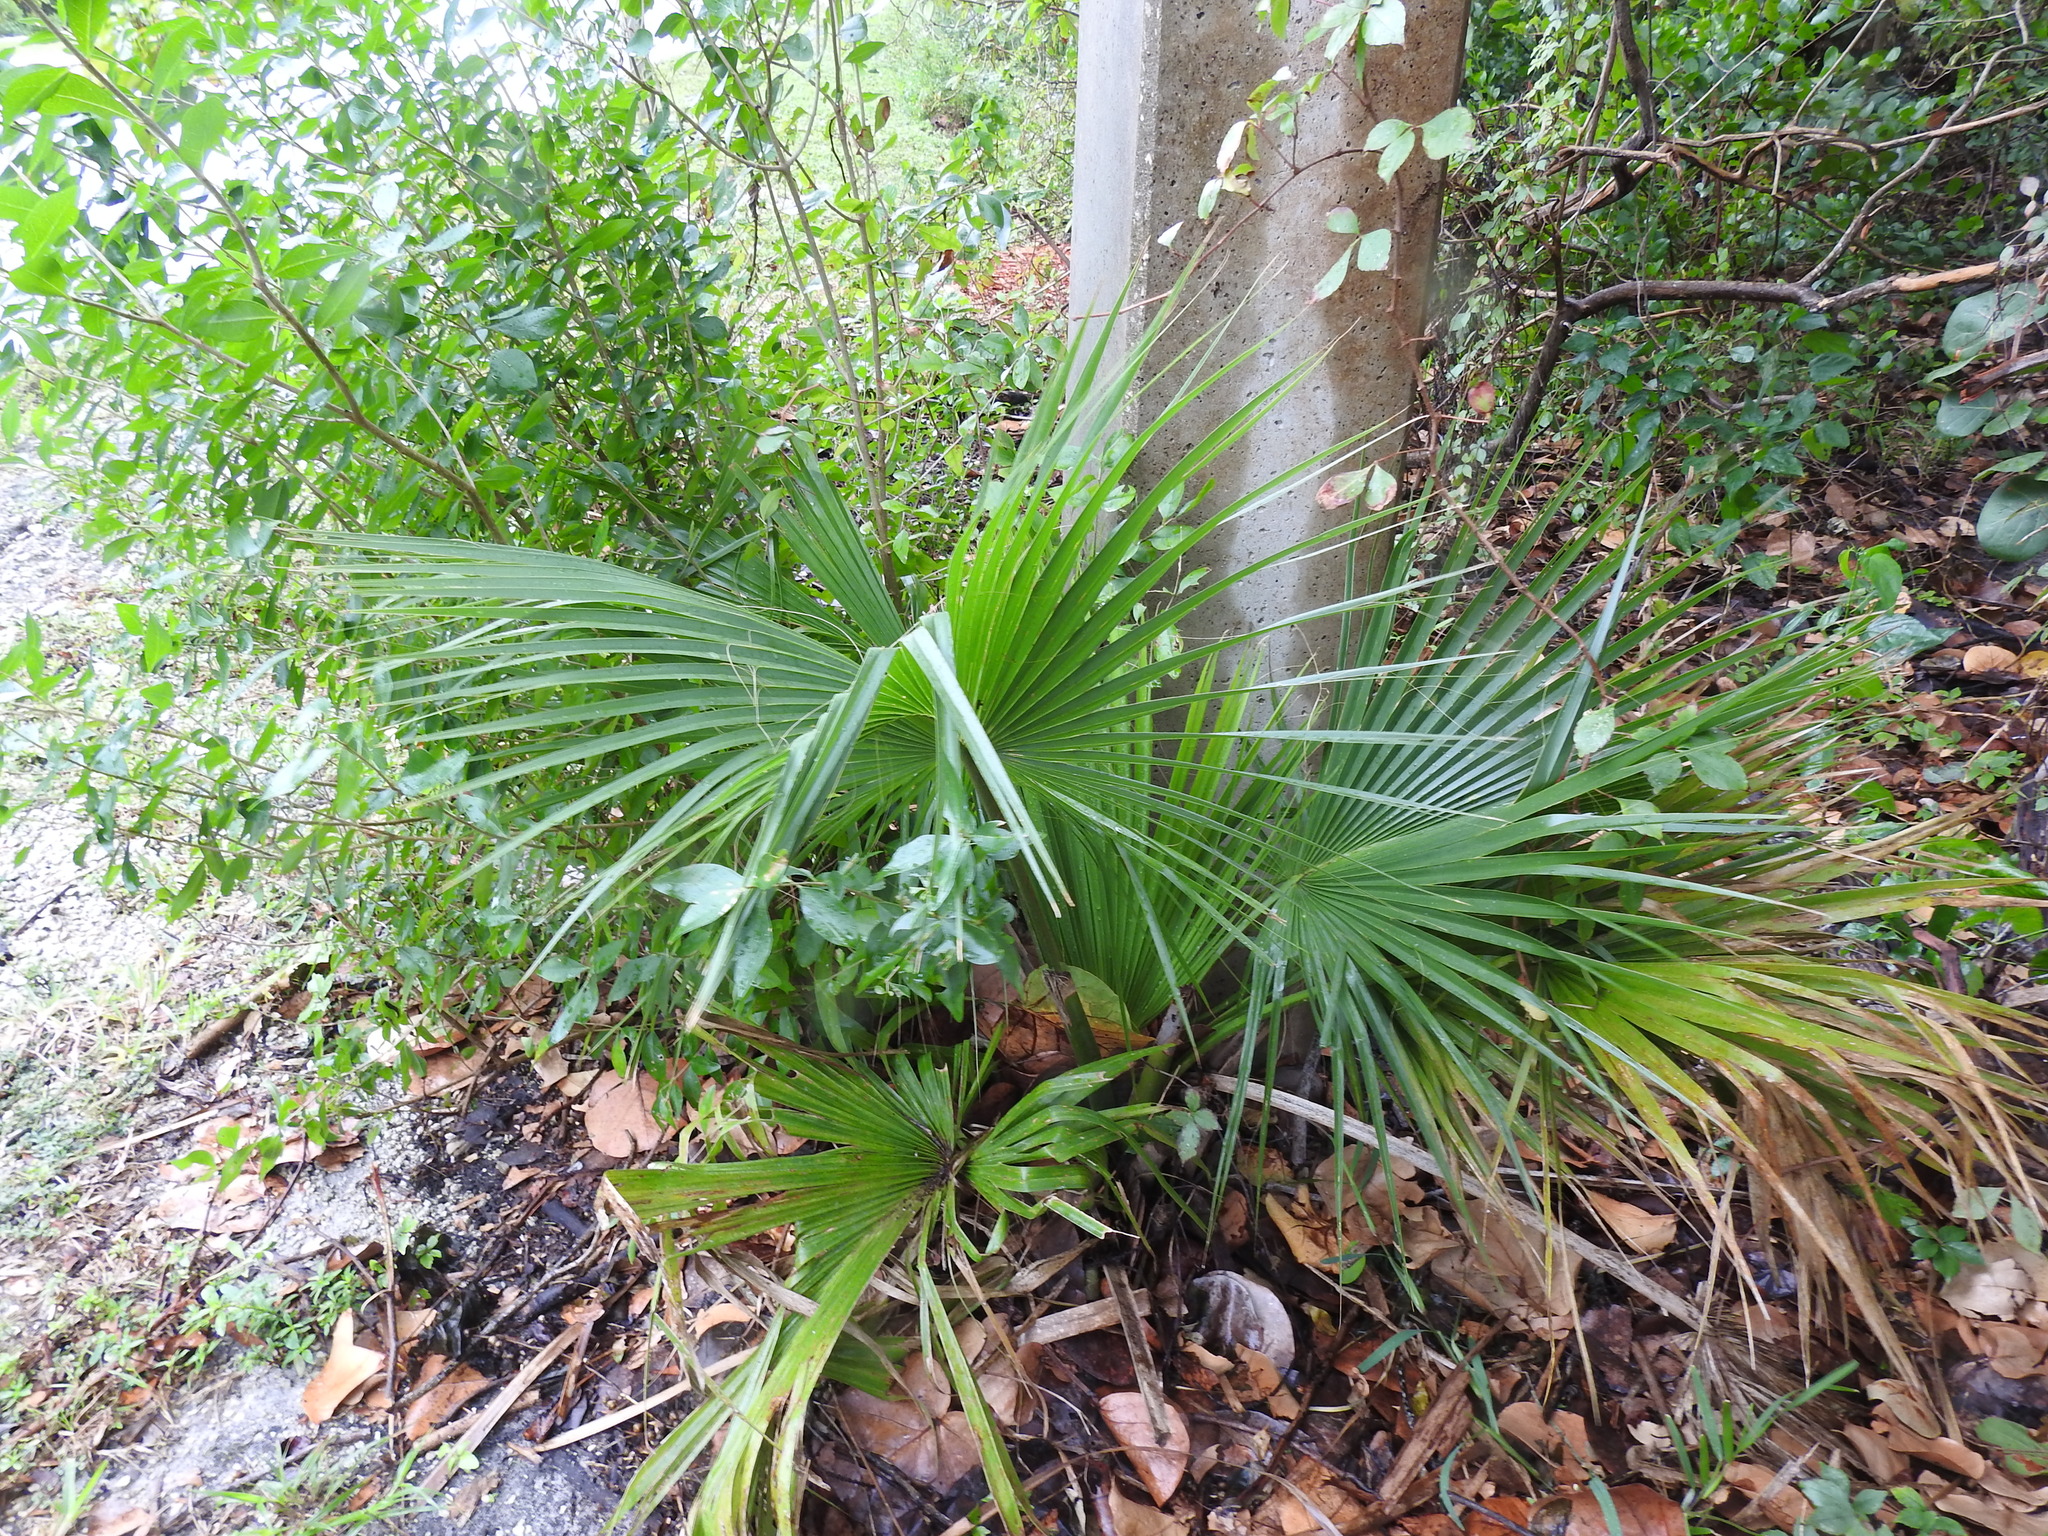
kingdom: Plantae
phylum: Tracheophyta
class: Liliopsida
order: Arecales
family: Arecaceae
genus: Washingtonia
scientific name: Washingtonia robusta
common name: Mexican fan palm
